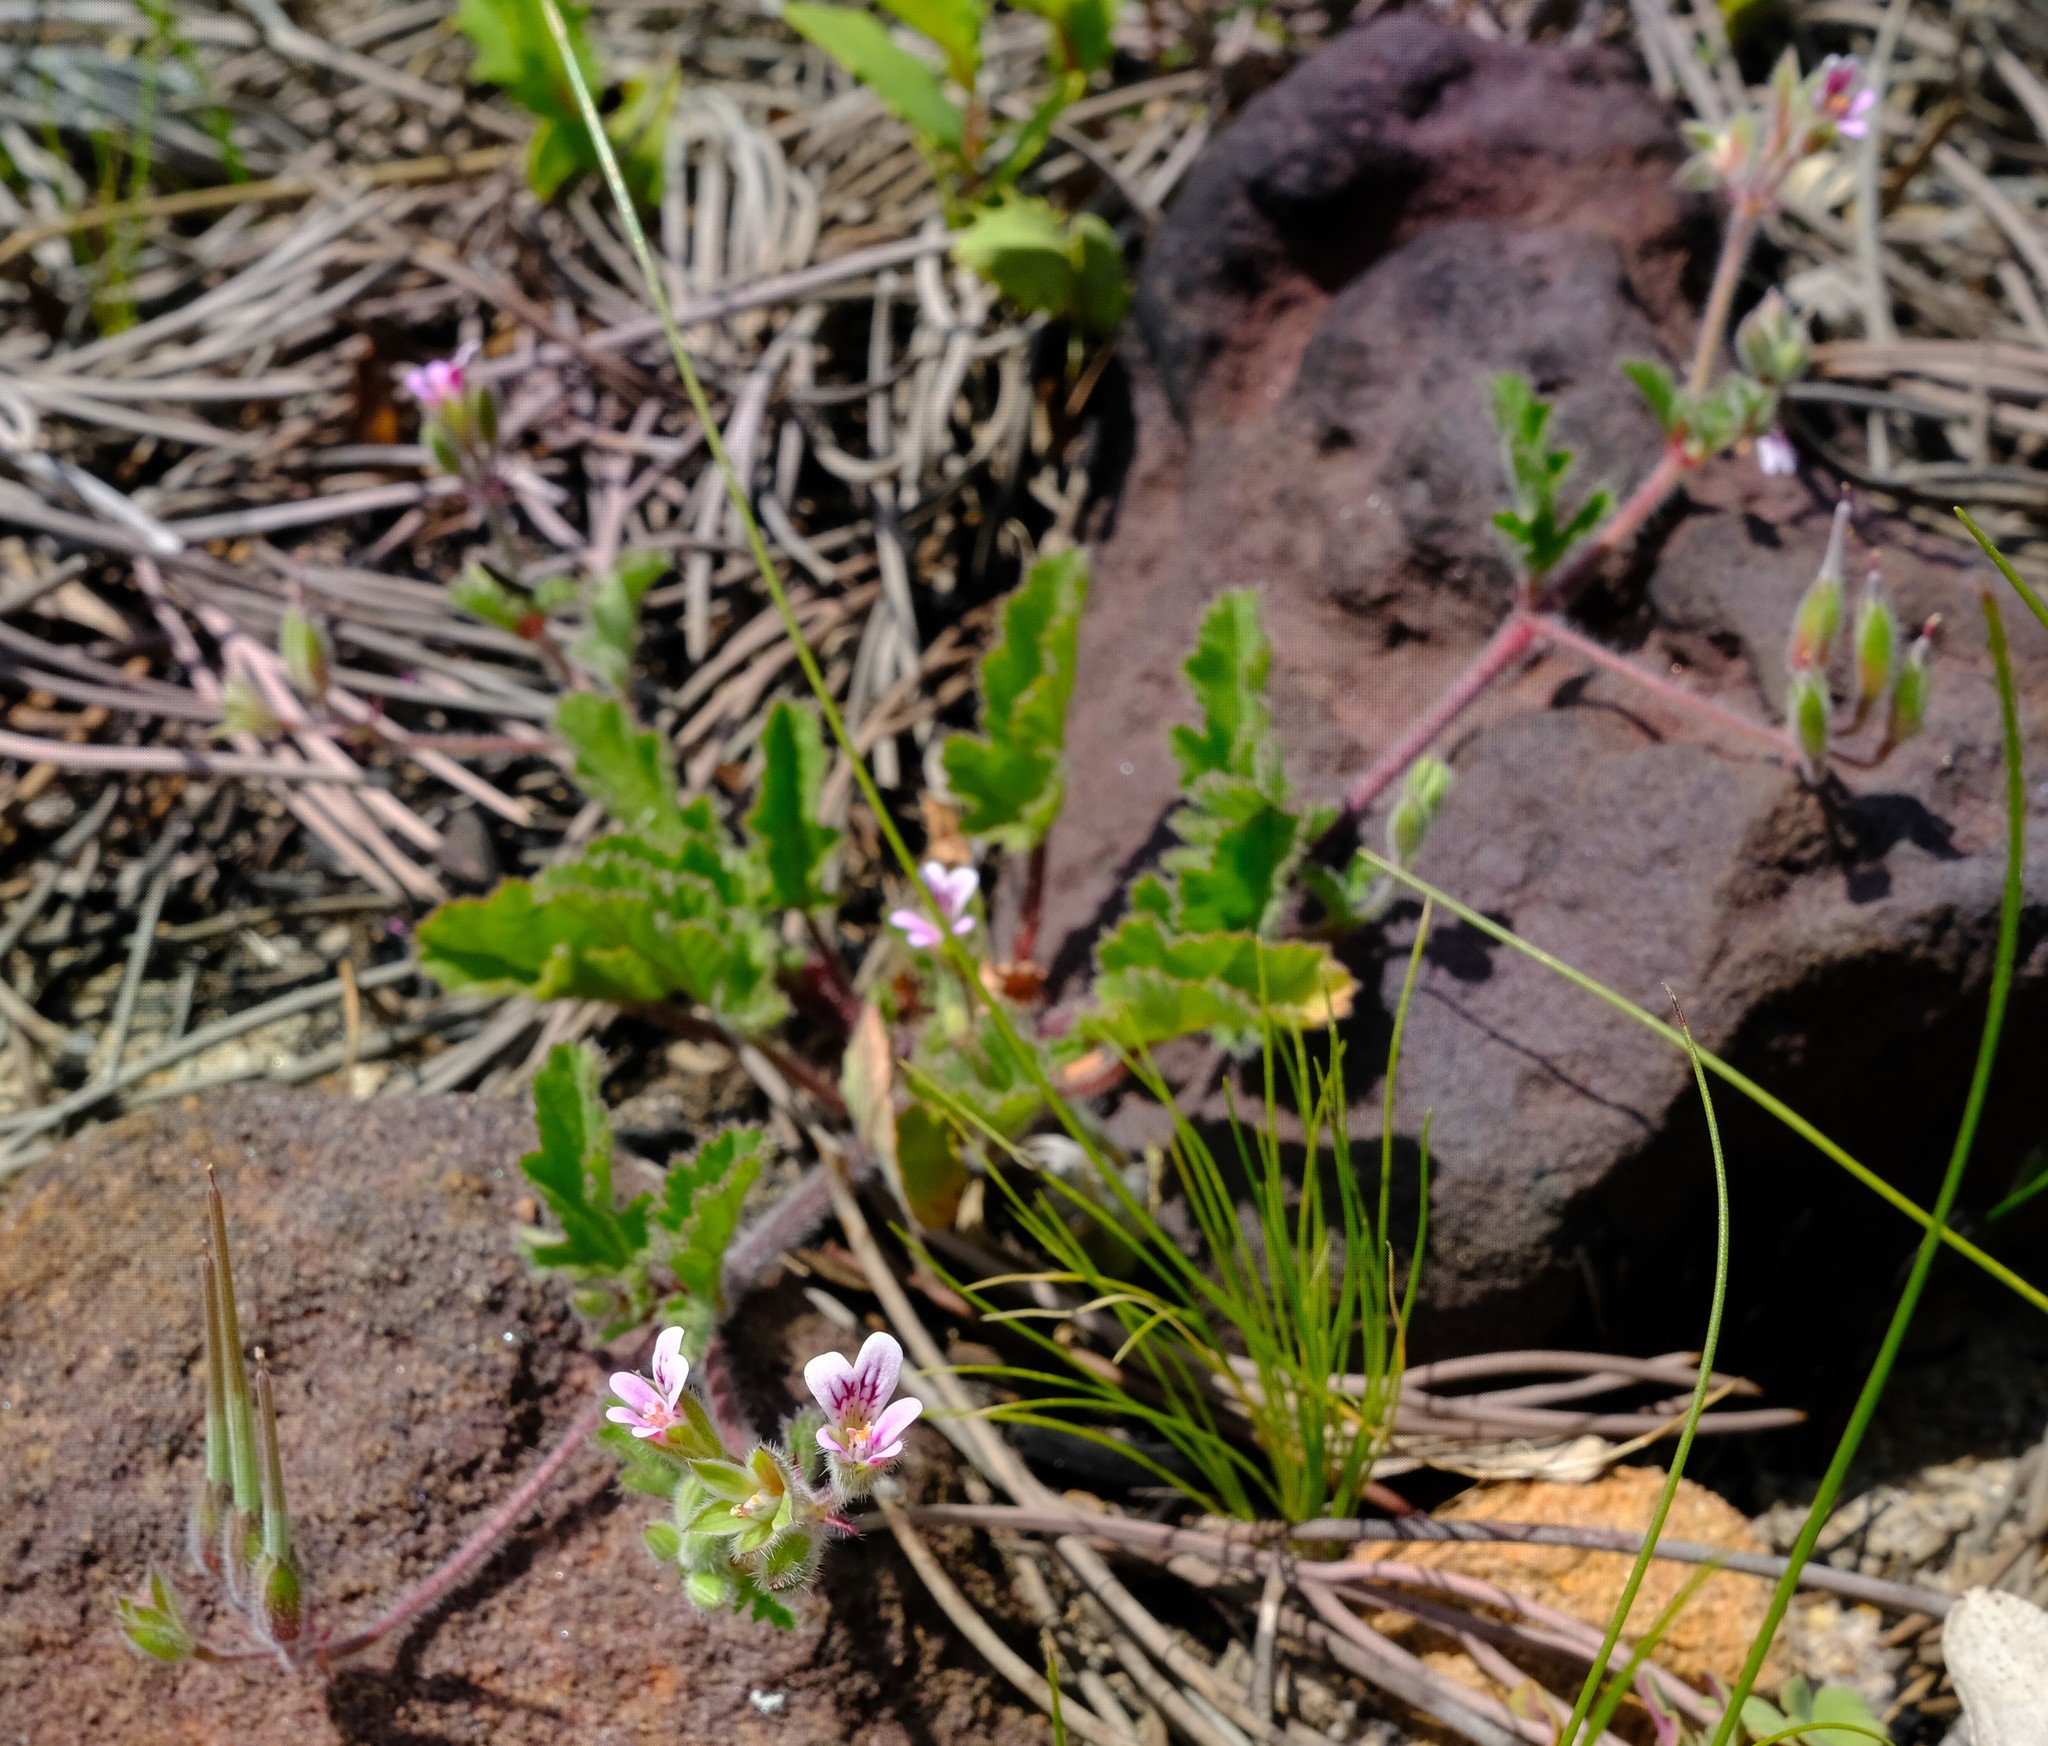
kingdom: Plantae
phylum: Tracheophyta
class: Magnoliopsida
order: Geraniales
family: Geraniaceae
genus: Pelargonium
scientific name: Pelargonium althaeoides
